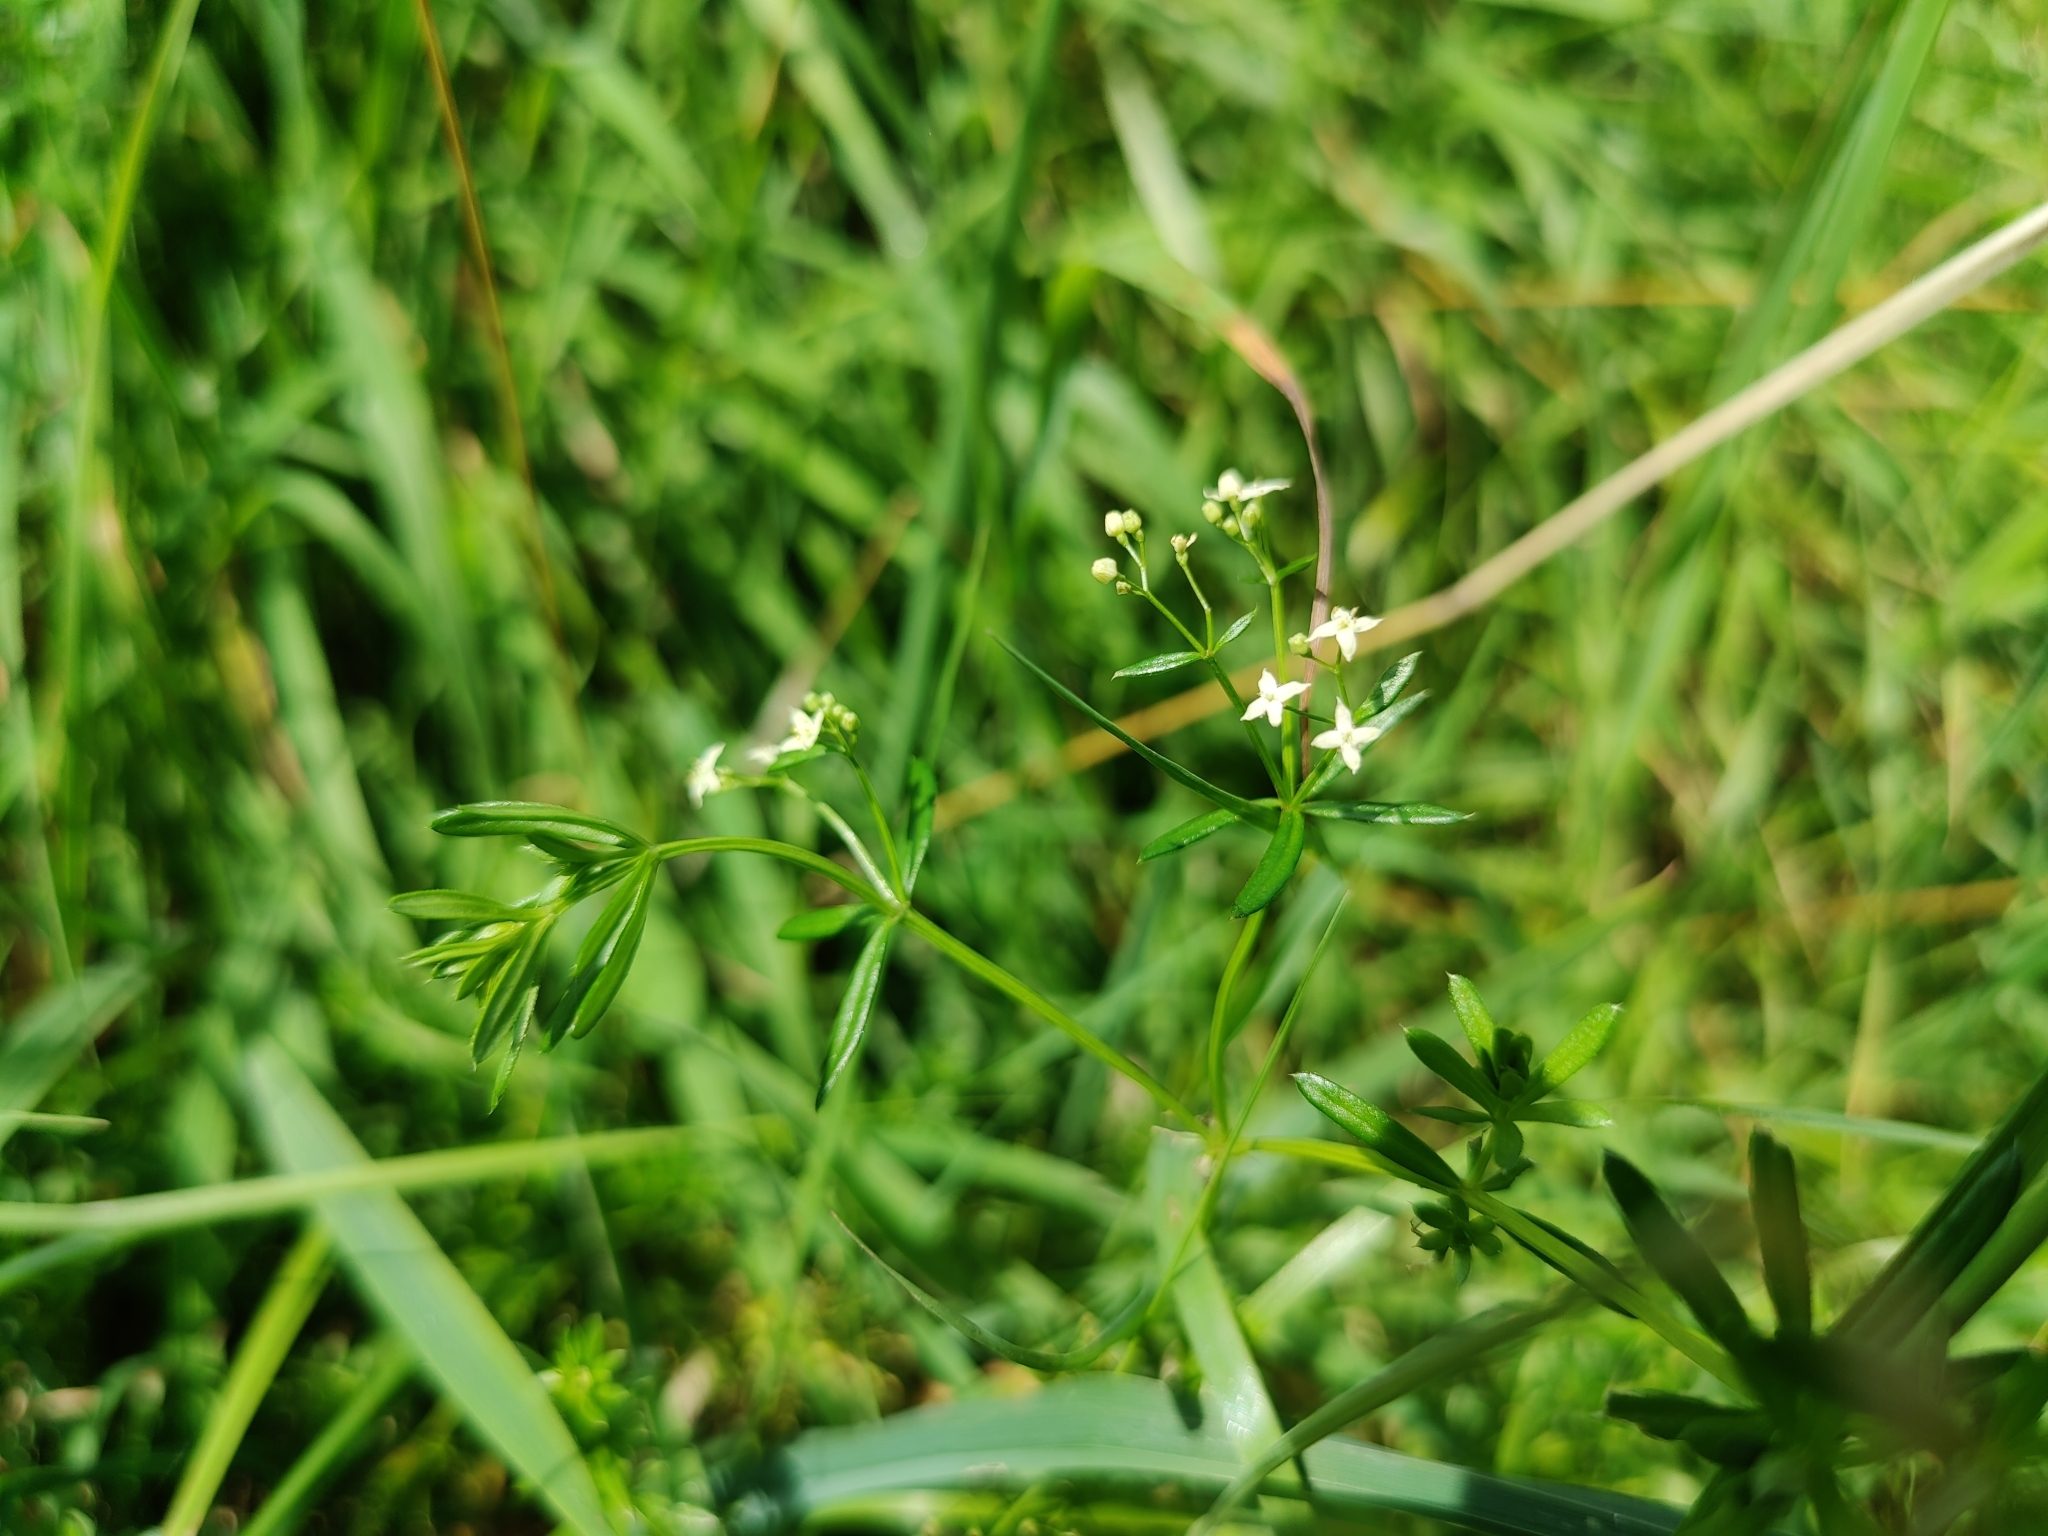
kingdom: Plantae
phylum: Tracheophyta
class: Magnoliopsida
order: Gentianales
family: Rubiaceae
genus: Galium
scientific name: Galium album
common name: White bedstraw
